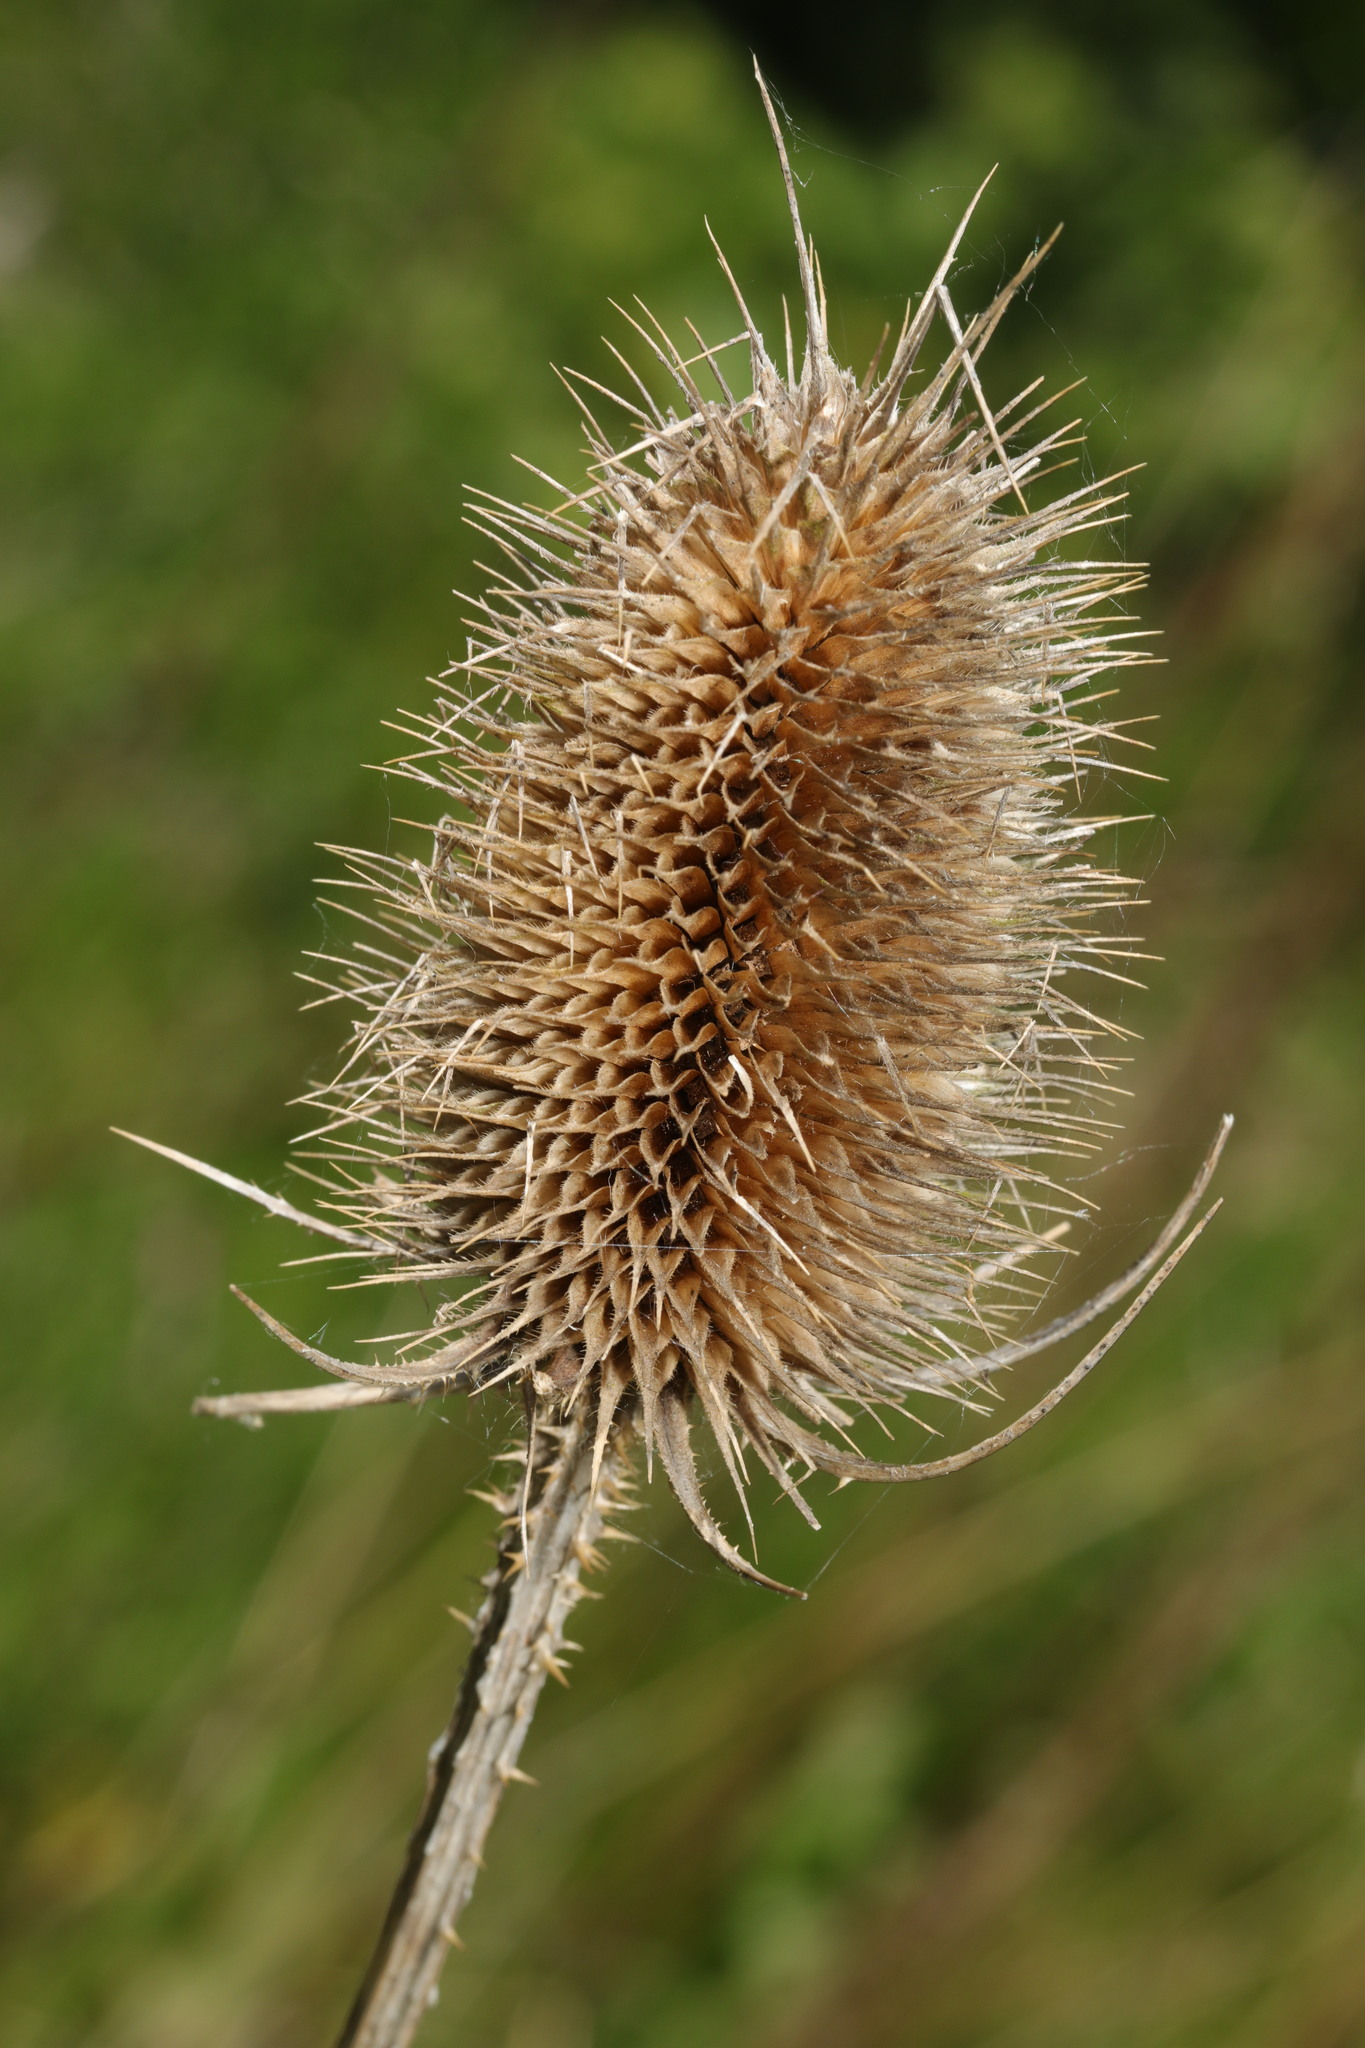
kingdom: Plantae
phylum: Tracheophyta
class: Magnoliopsida
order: Dipsacales
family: Caprifoliaceae
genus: Dipsacus
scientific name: Dipsacus fullonum
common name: Teasel
